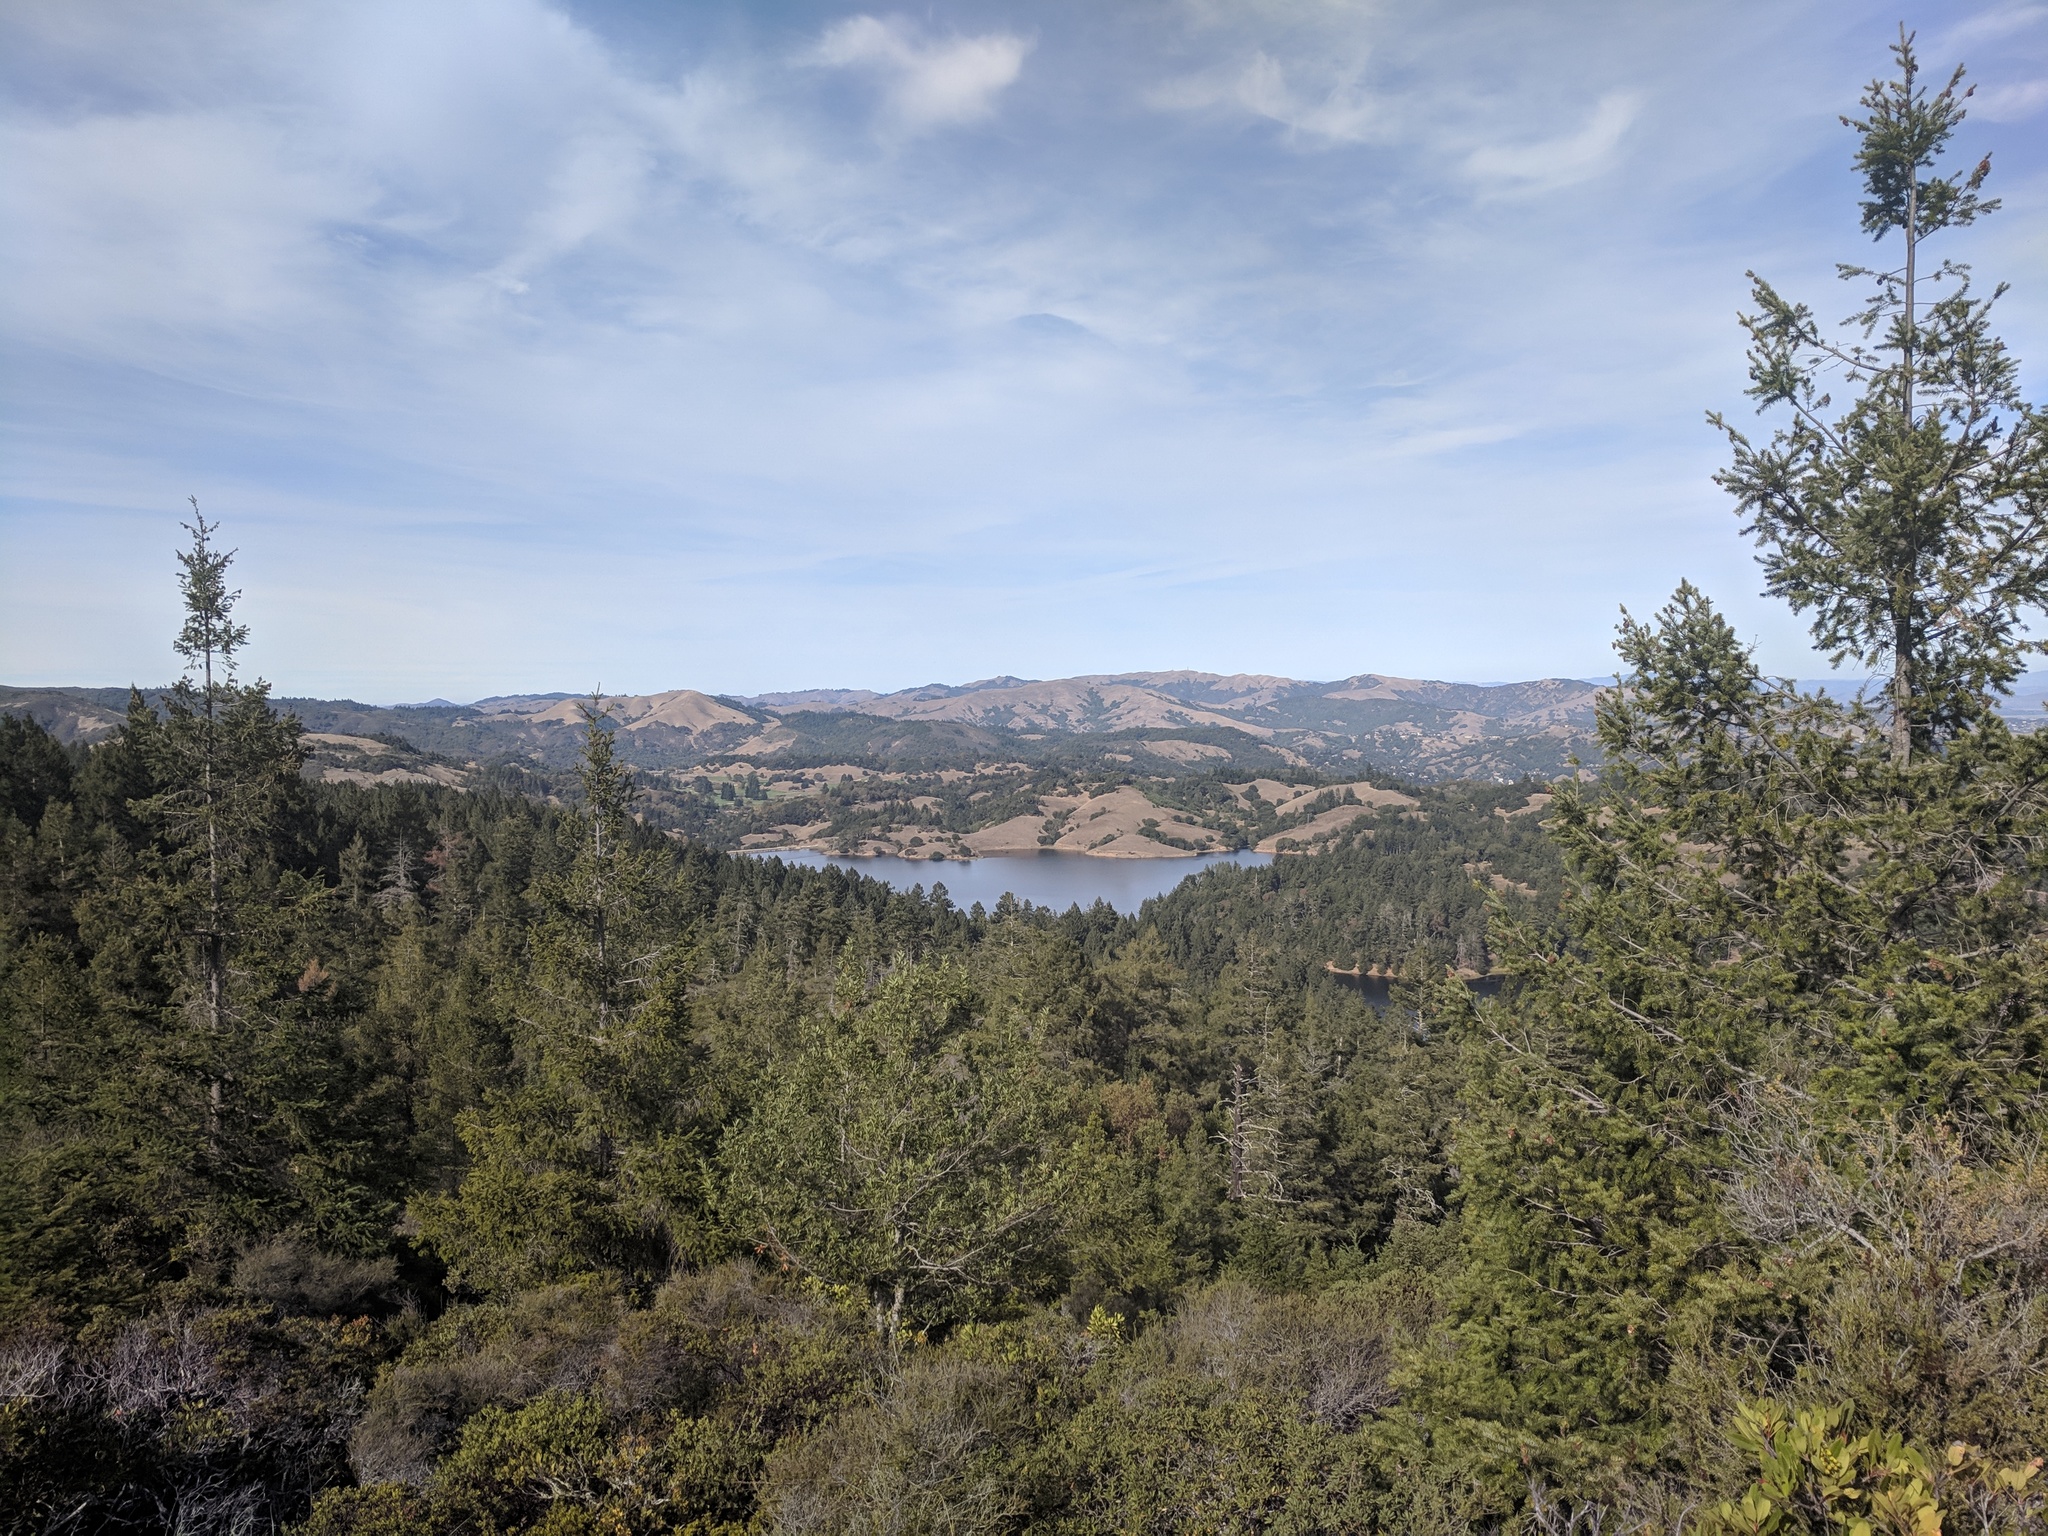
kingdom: Plantae
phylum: Tracheophyta
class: Pinopsida
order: Pinales
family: Pinaceae
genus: Pseudotsuga
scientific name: Pseudotsuga menziesii
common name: Douglas fir
